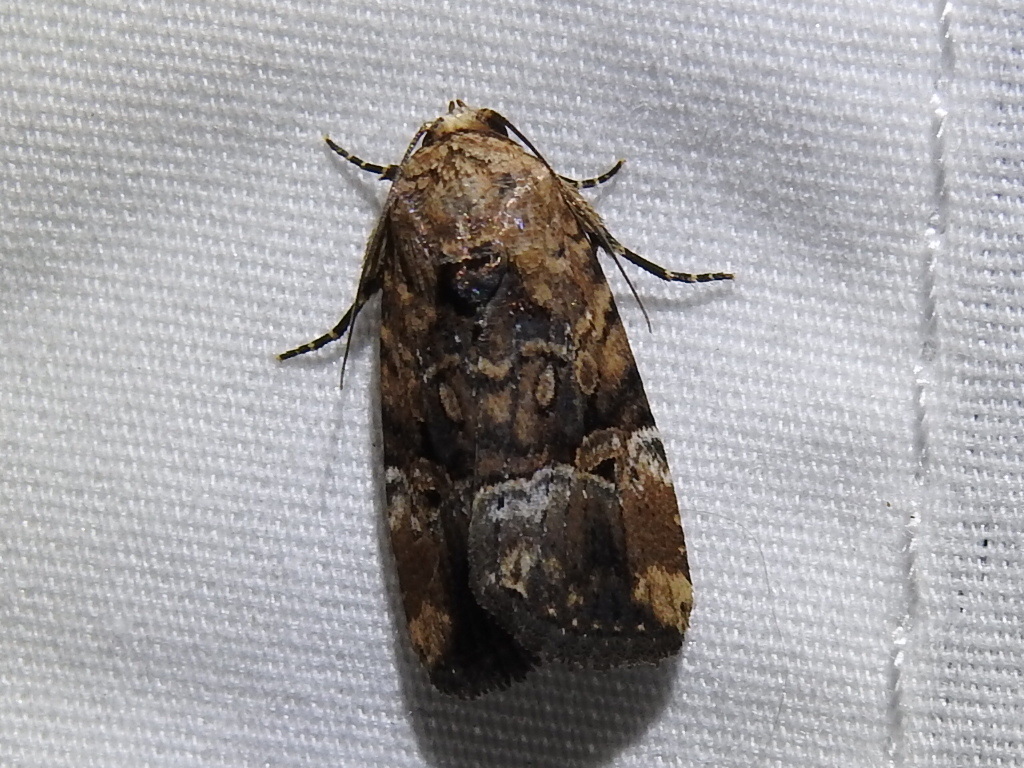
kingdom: Animalia
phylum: Arthropoda
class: Insecta
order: Lepidoptera
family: Noctuidae
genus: Elaphria
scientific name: Elaphria chalcedonia
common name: Chalcedony midget
